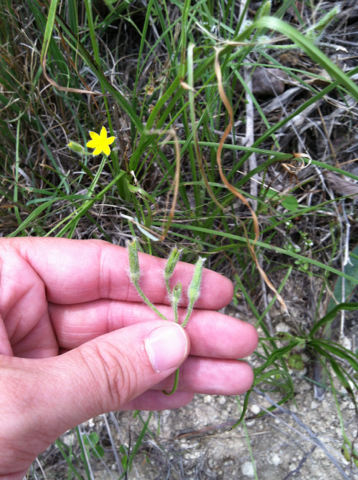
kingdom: Plantae
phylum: Tracheophyta
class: Liliopsida
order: Asparagales
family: Hypoxidaceae
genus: Hypoxis
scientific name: Hypoxis hirsuta
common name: Common goldstar
